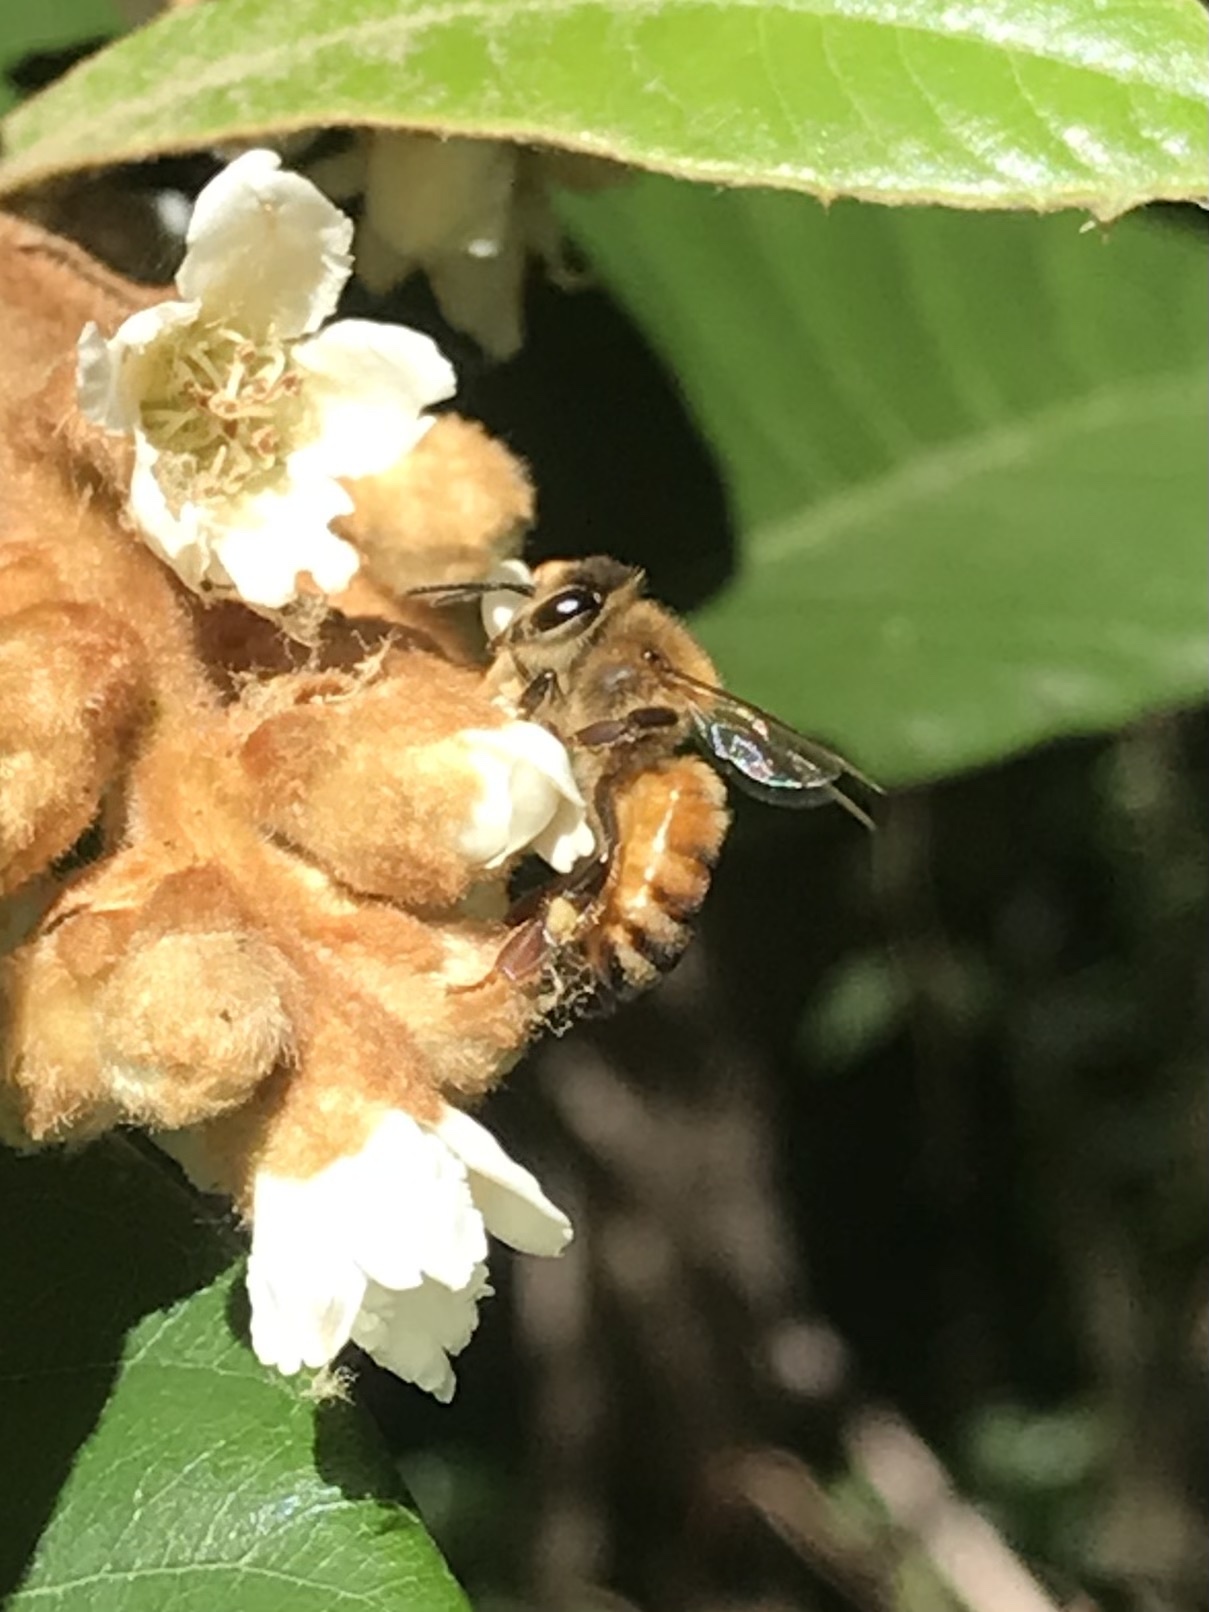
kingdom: Animalia
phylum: Arthropoda
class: Insecta
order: Hymenoptera
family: Apidae
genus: Apis
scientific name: Apis mellifera
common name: Honey bee
